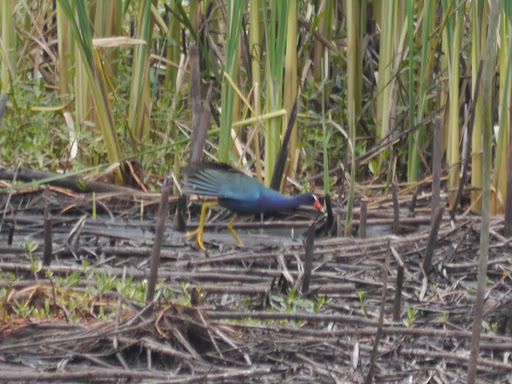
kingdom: Animalia
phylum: Chordata
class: Aves
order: Gruiformes
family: Rallidae
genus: Porphyrio
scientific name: Porphyrio martinica
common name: Purple gallinule
